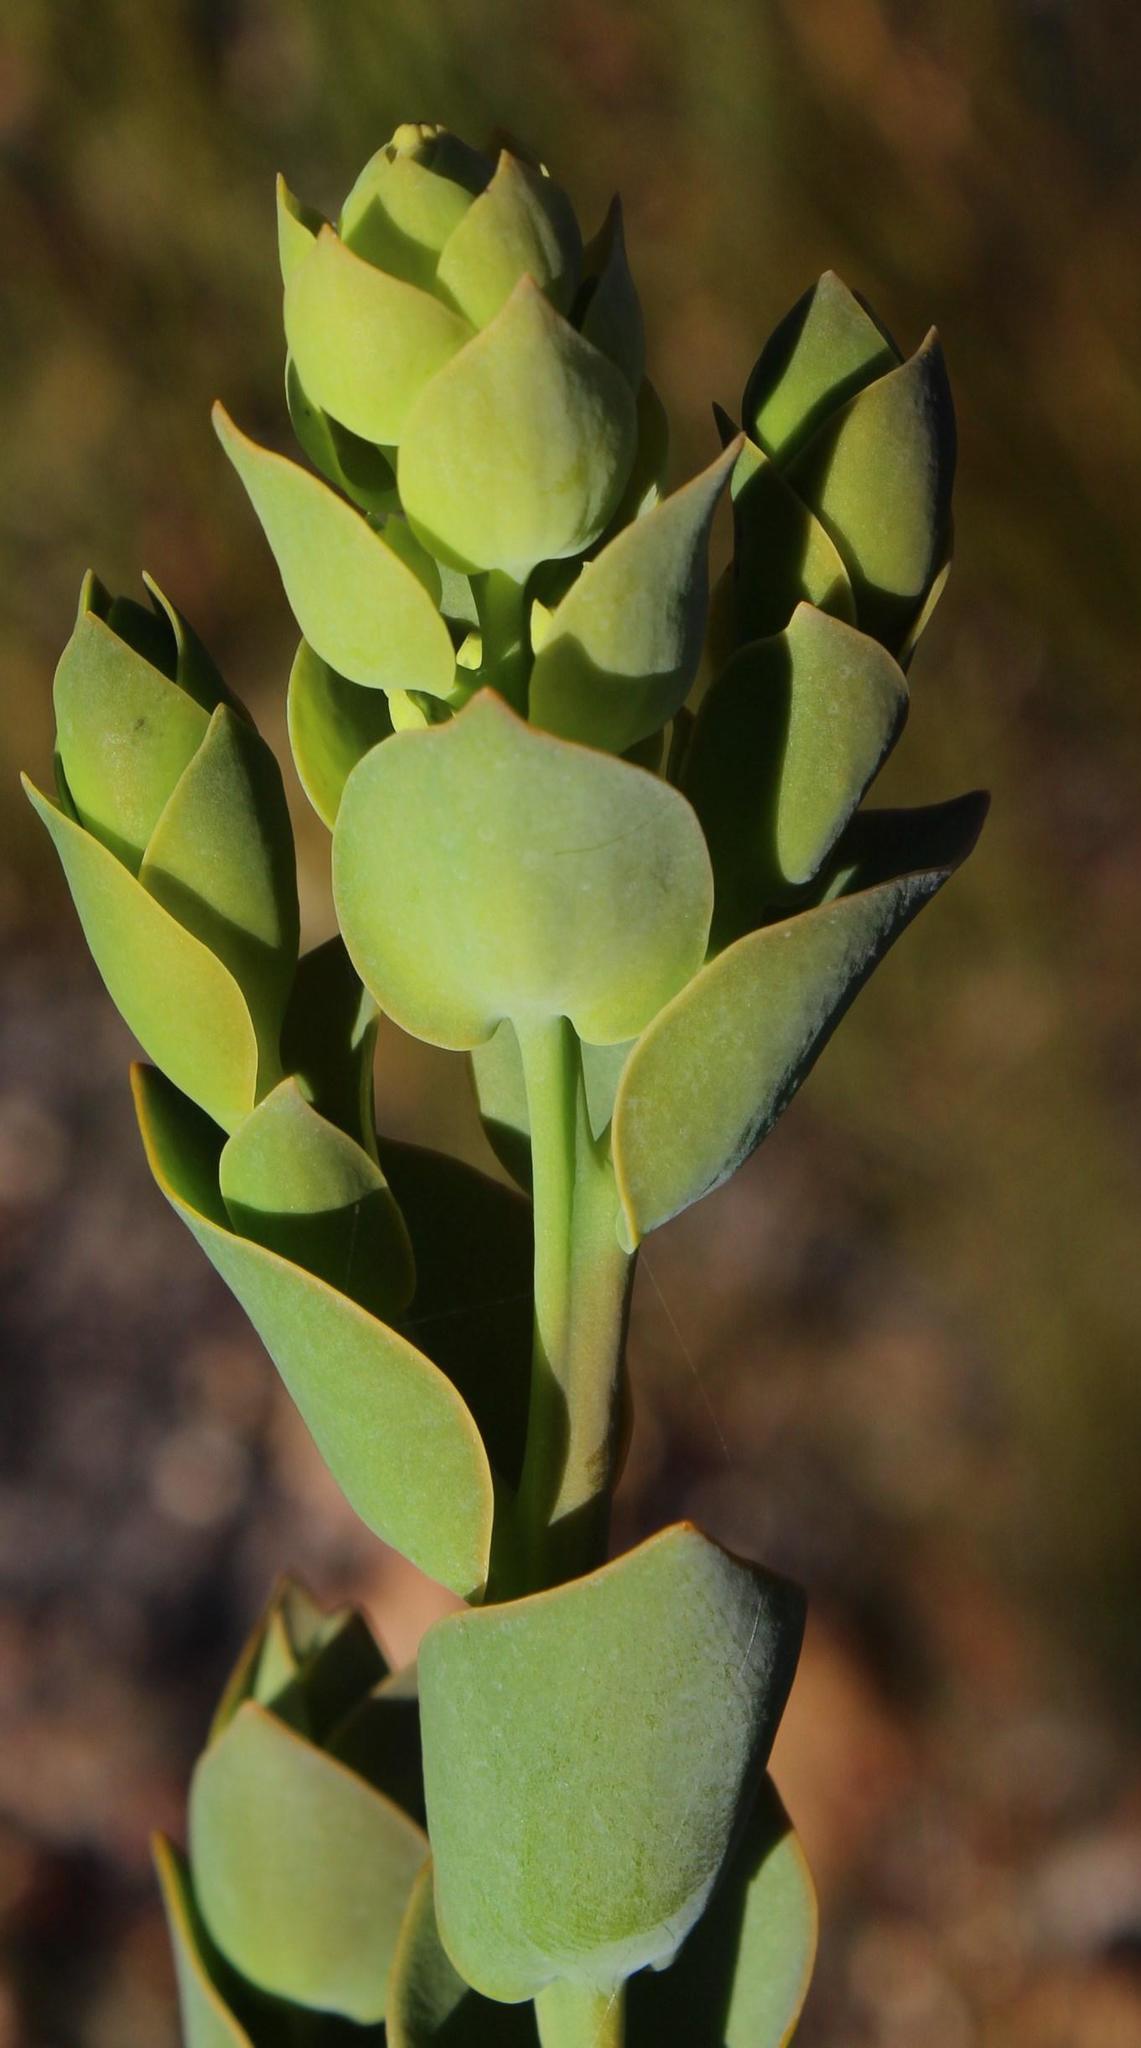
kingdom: Plantae
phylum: Tracheophyta
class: Magnoliopsida
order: Santalales
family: Thesiaceae
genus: Thesium
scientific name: Thesium euphorbioides
